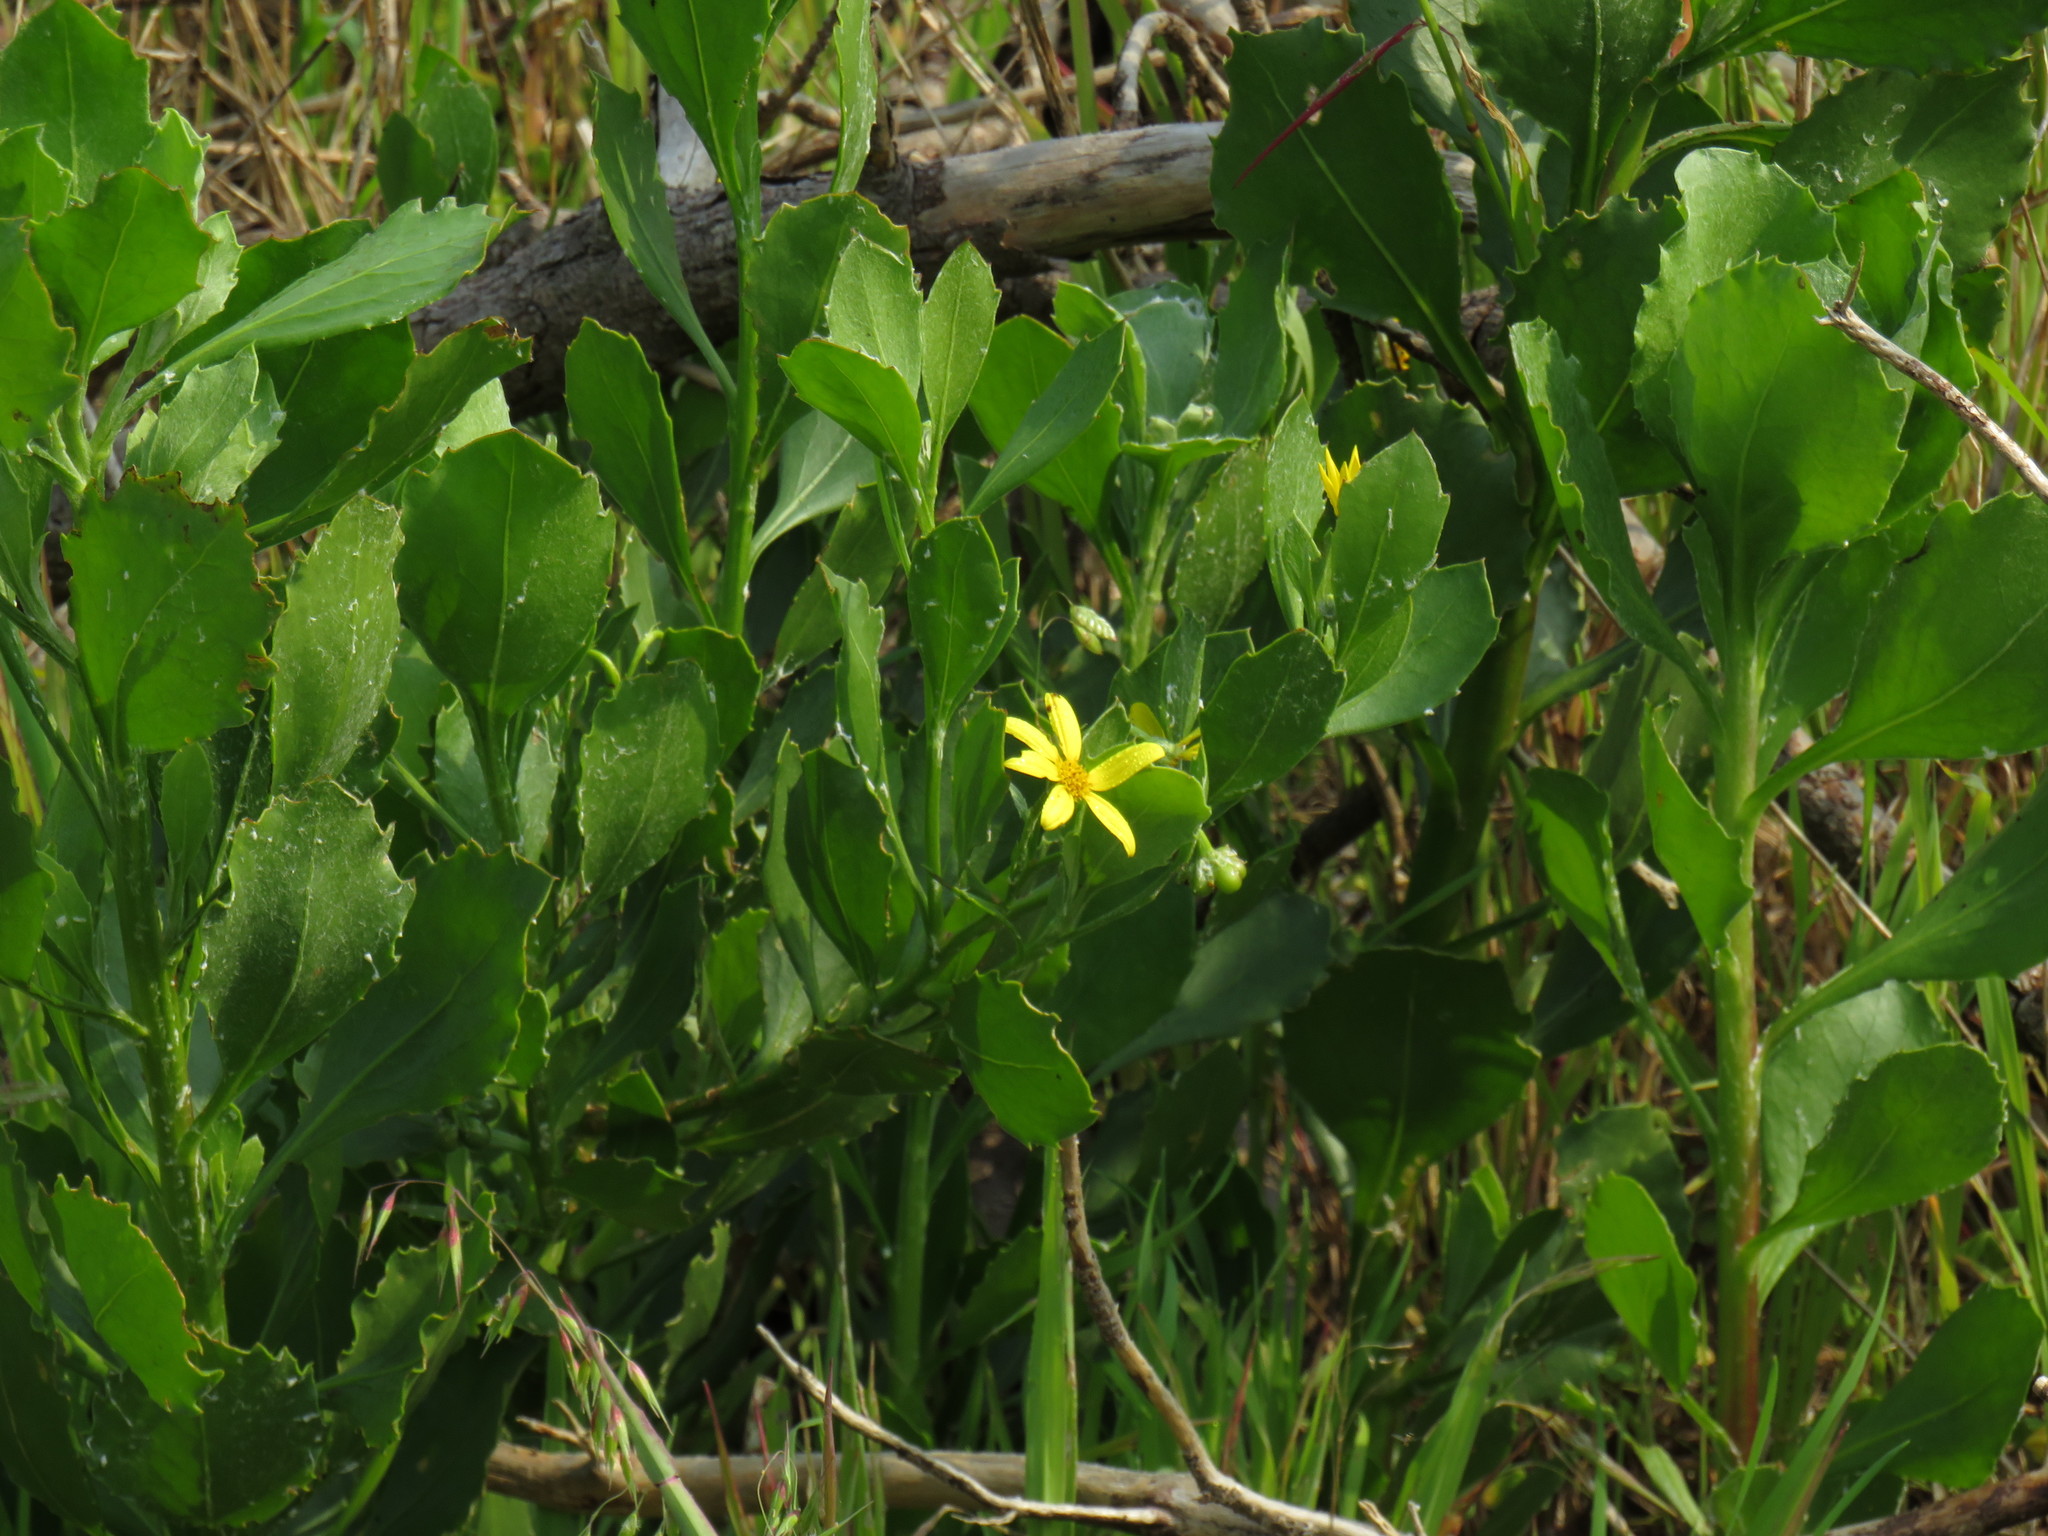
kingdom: Plantae
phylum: Tracheophyta
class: Magnoliopsida
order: Asterales
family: Asteraceae
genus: Osteospermum
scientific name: Osteospermum moniliferum
